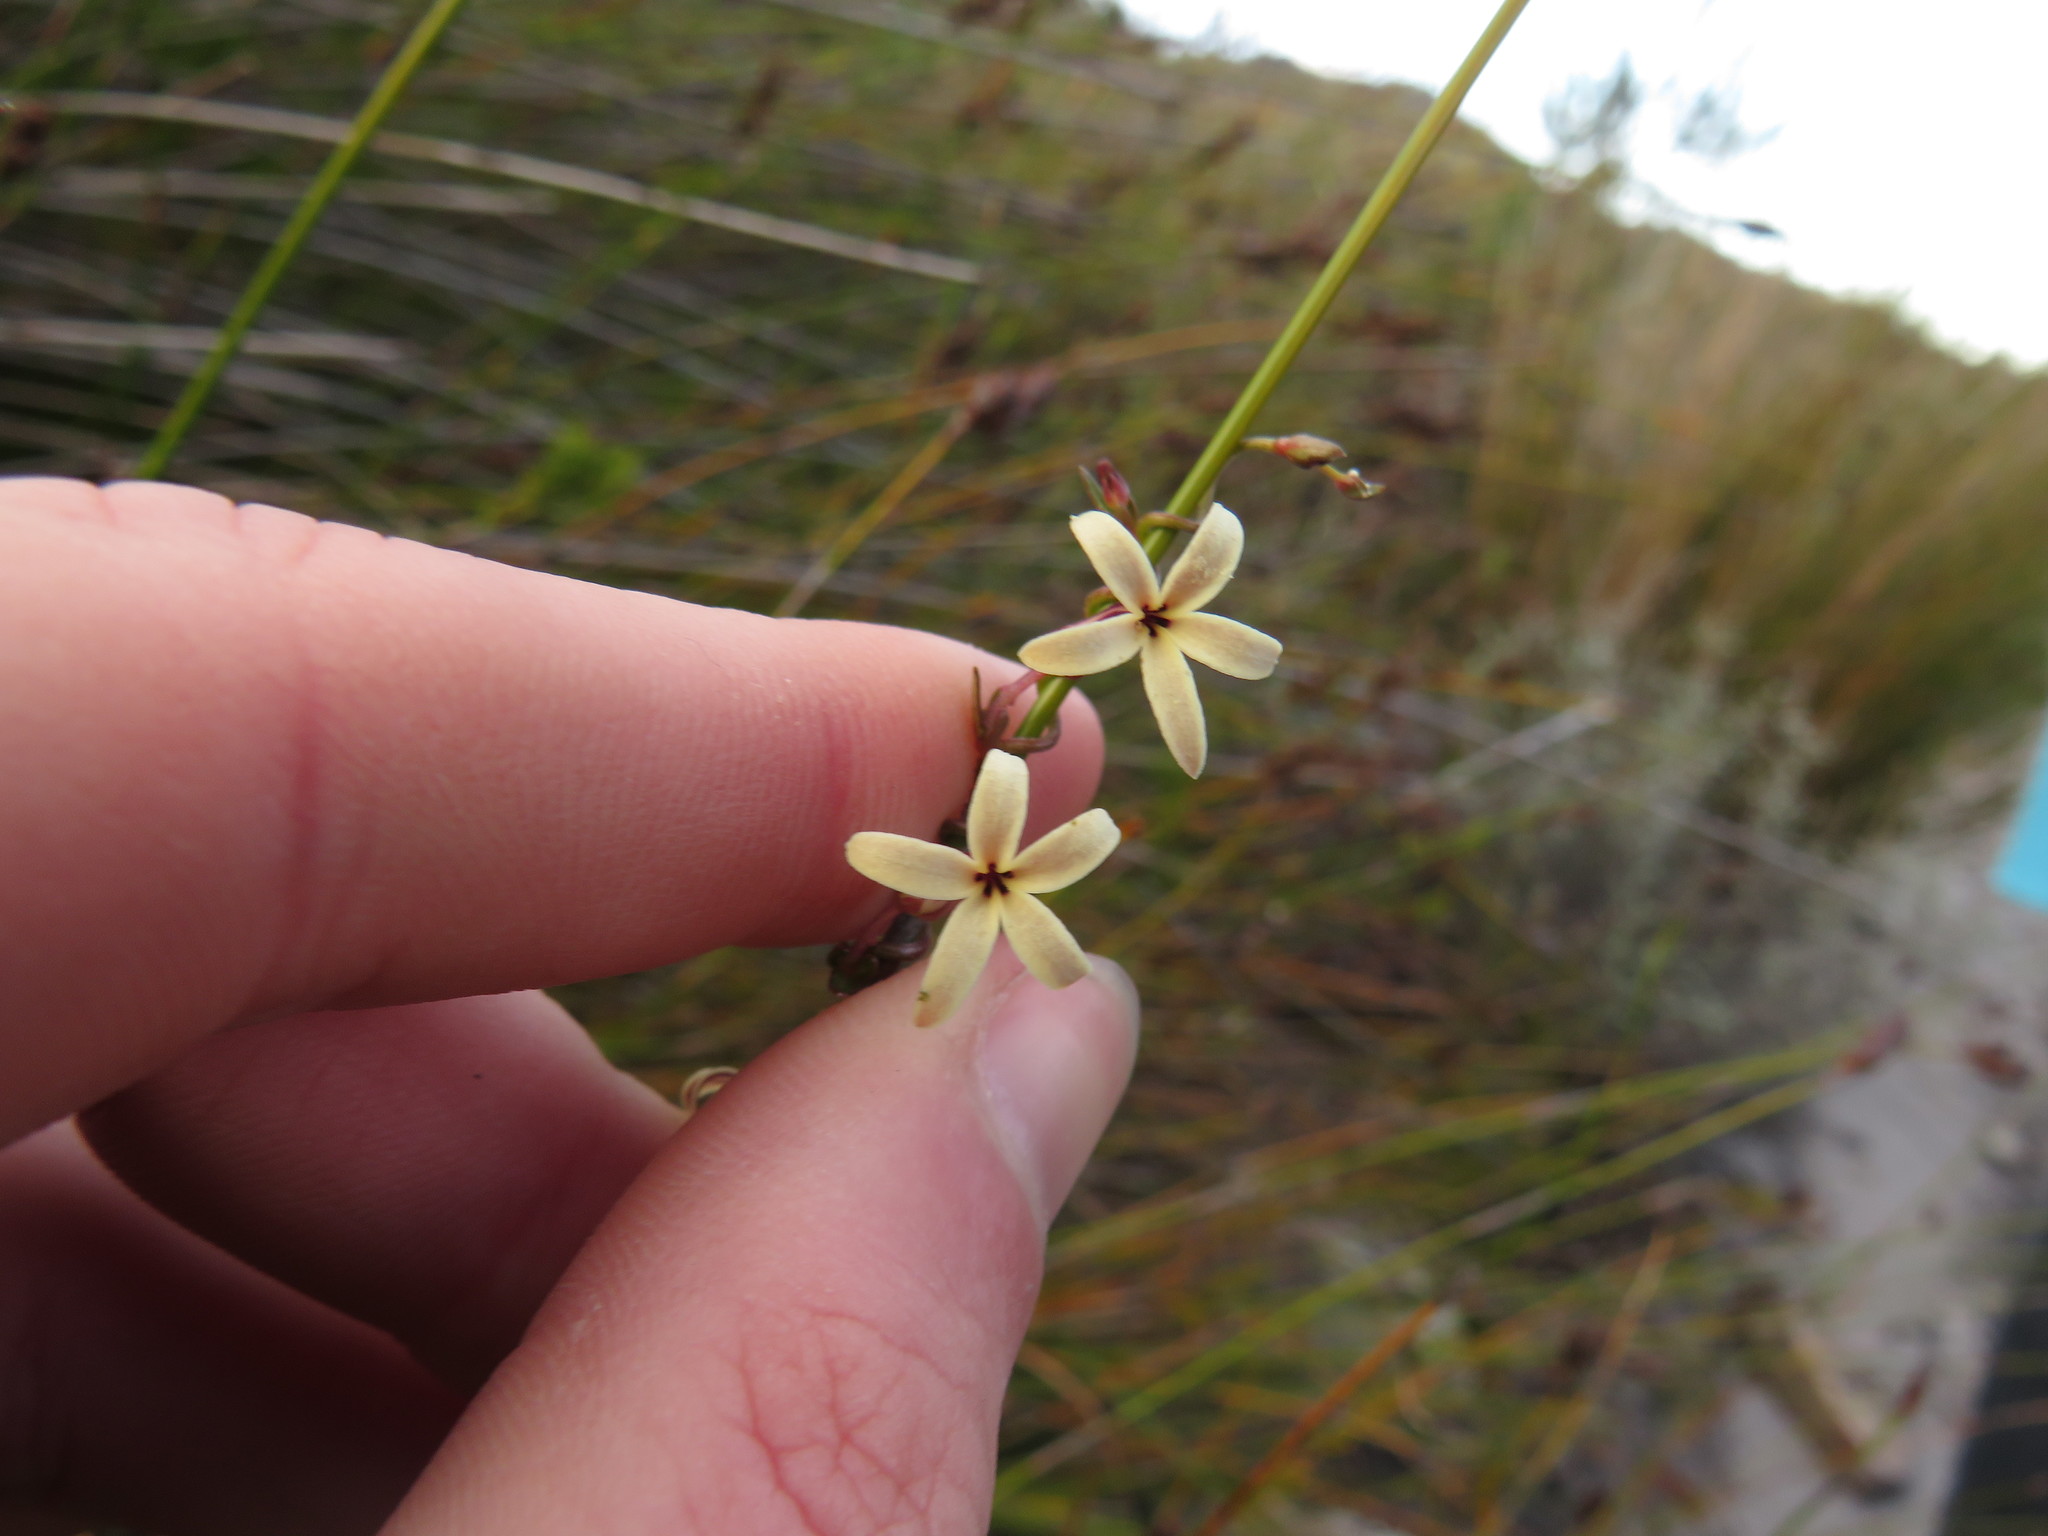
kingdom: Plantae
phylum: Tracheophyta
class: Magnoliopsida
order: Asterales
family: Campanulaceae
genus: Cyphia
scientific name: Cyphia zeyheriana
